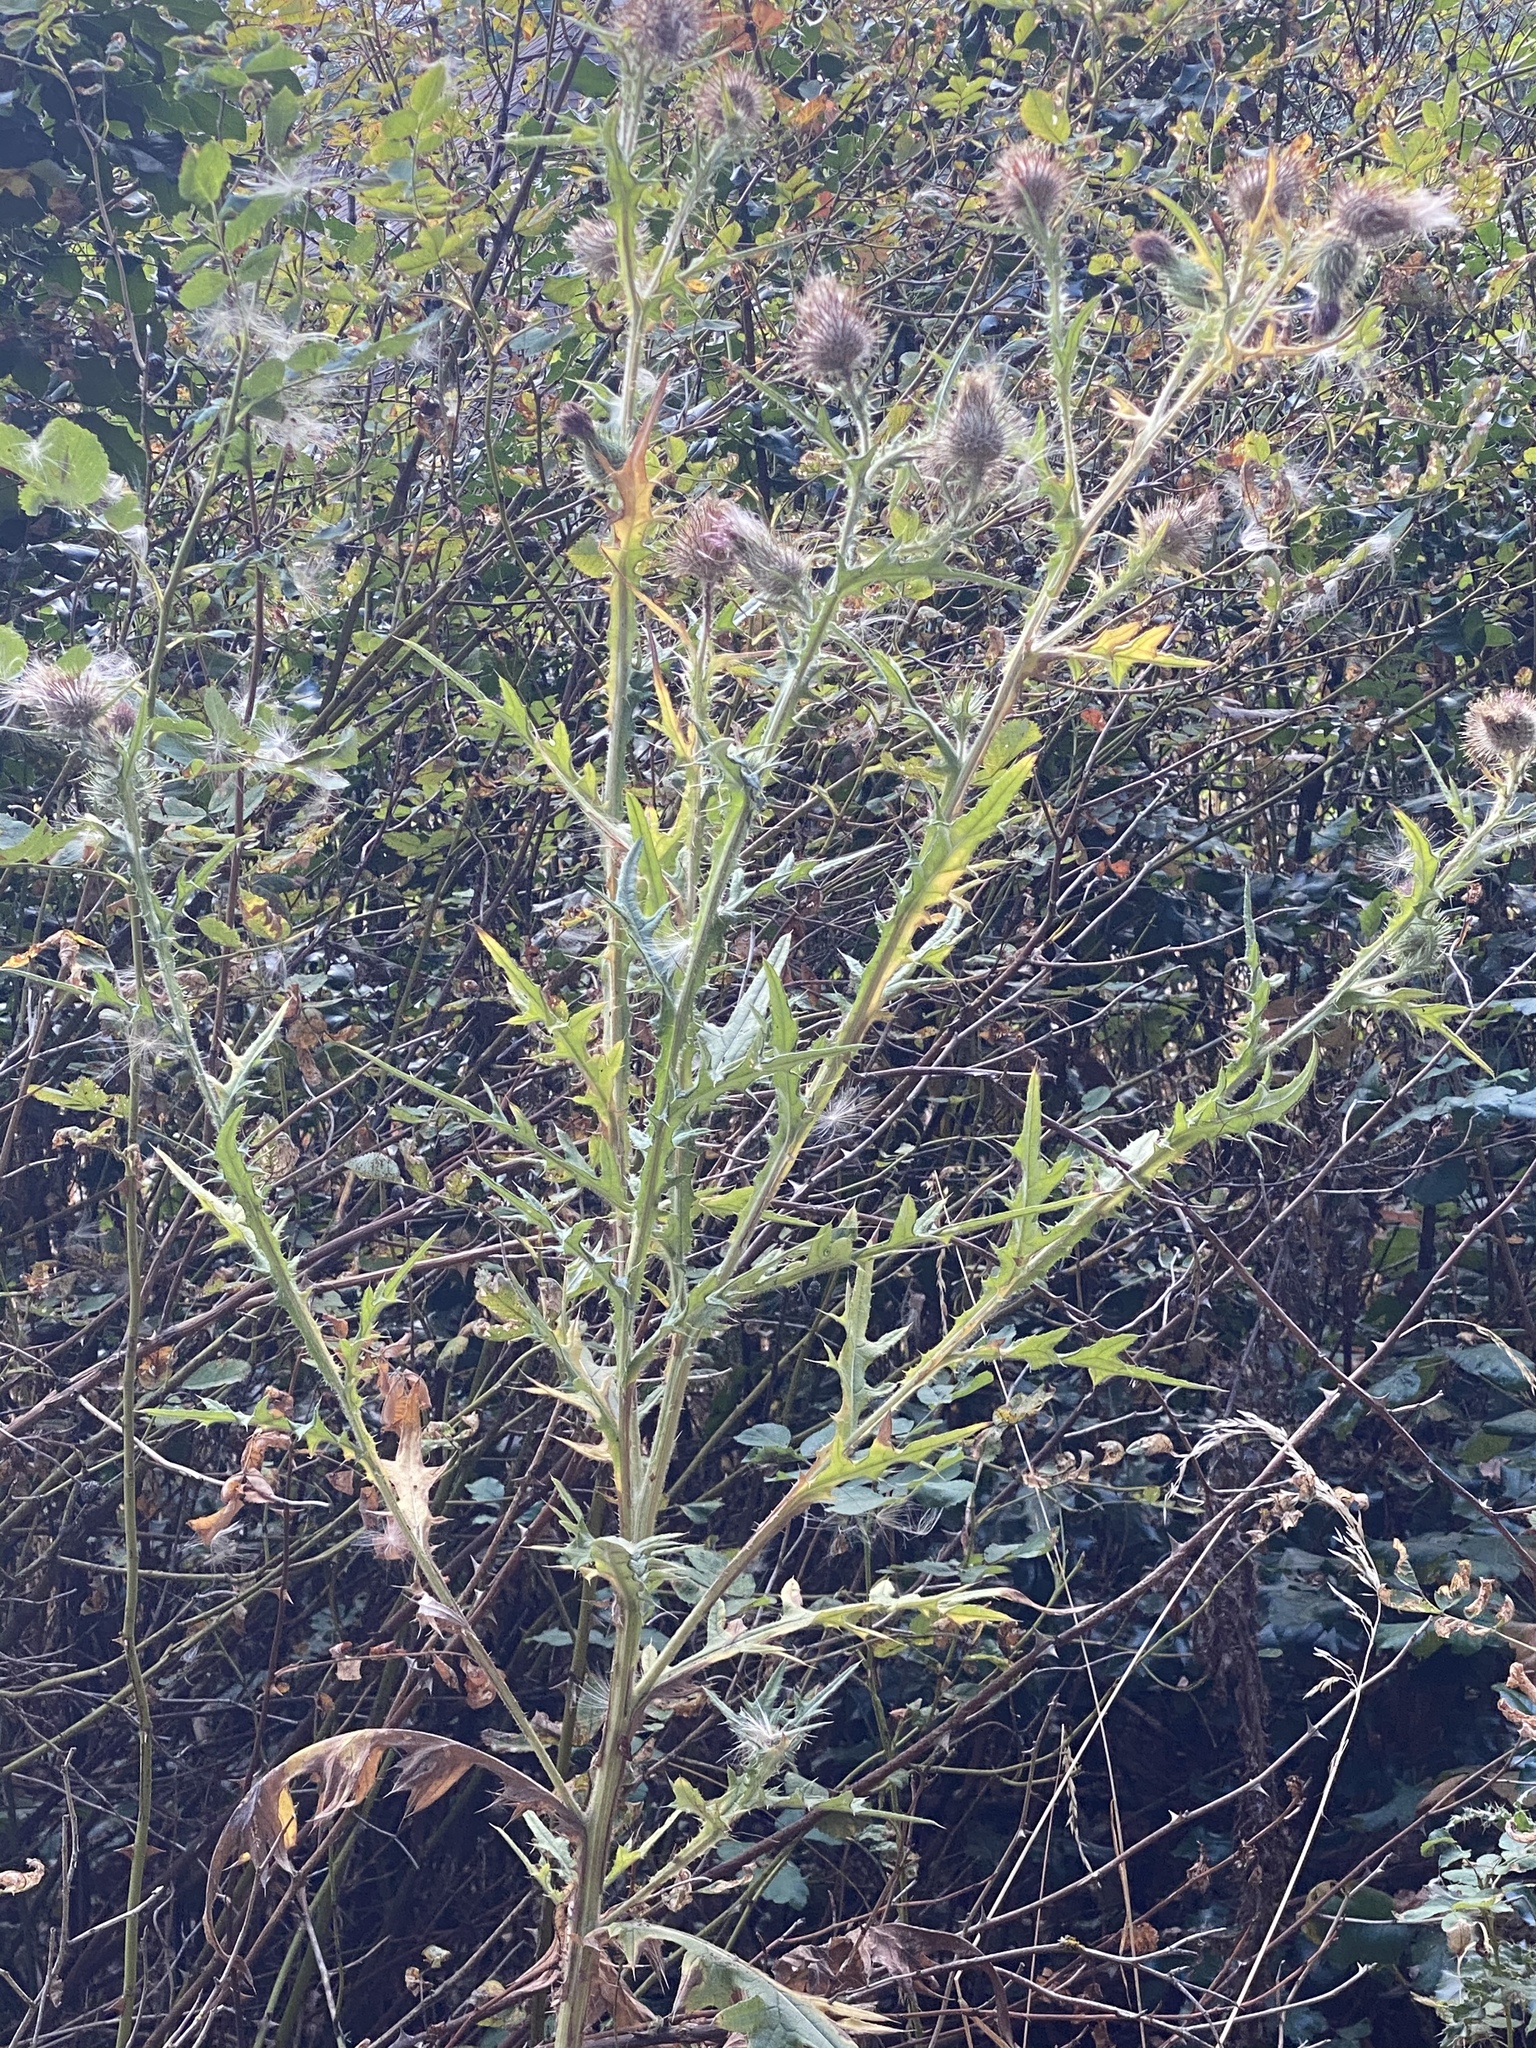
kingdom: Plantae
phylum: Tracheophyta
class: Magnoliopsida
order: Asterales
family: Asteraceae
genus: Cirsium
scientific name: Cirsium vulgare
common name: Bull thistle
